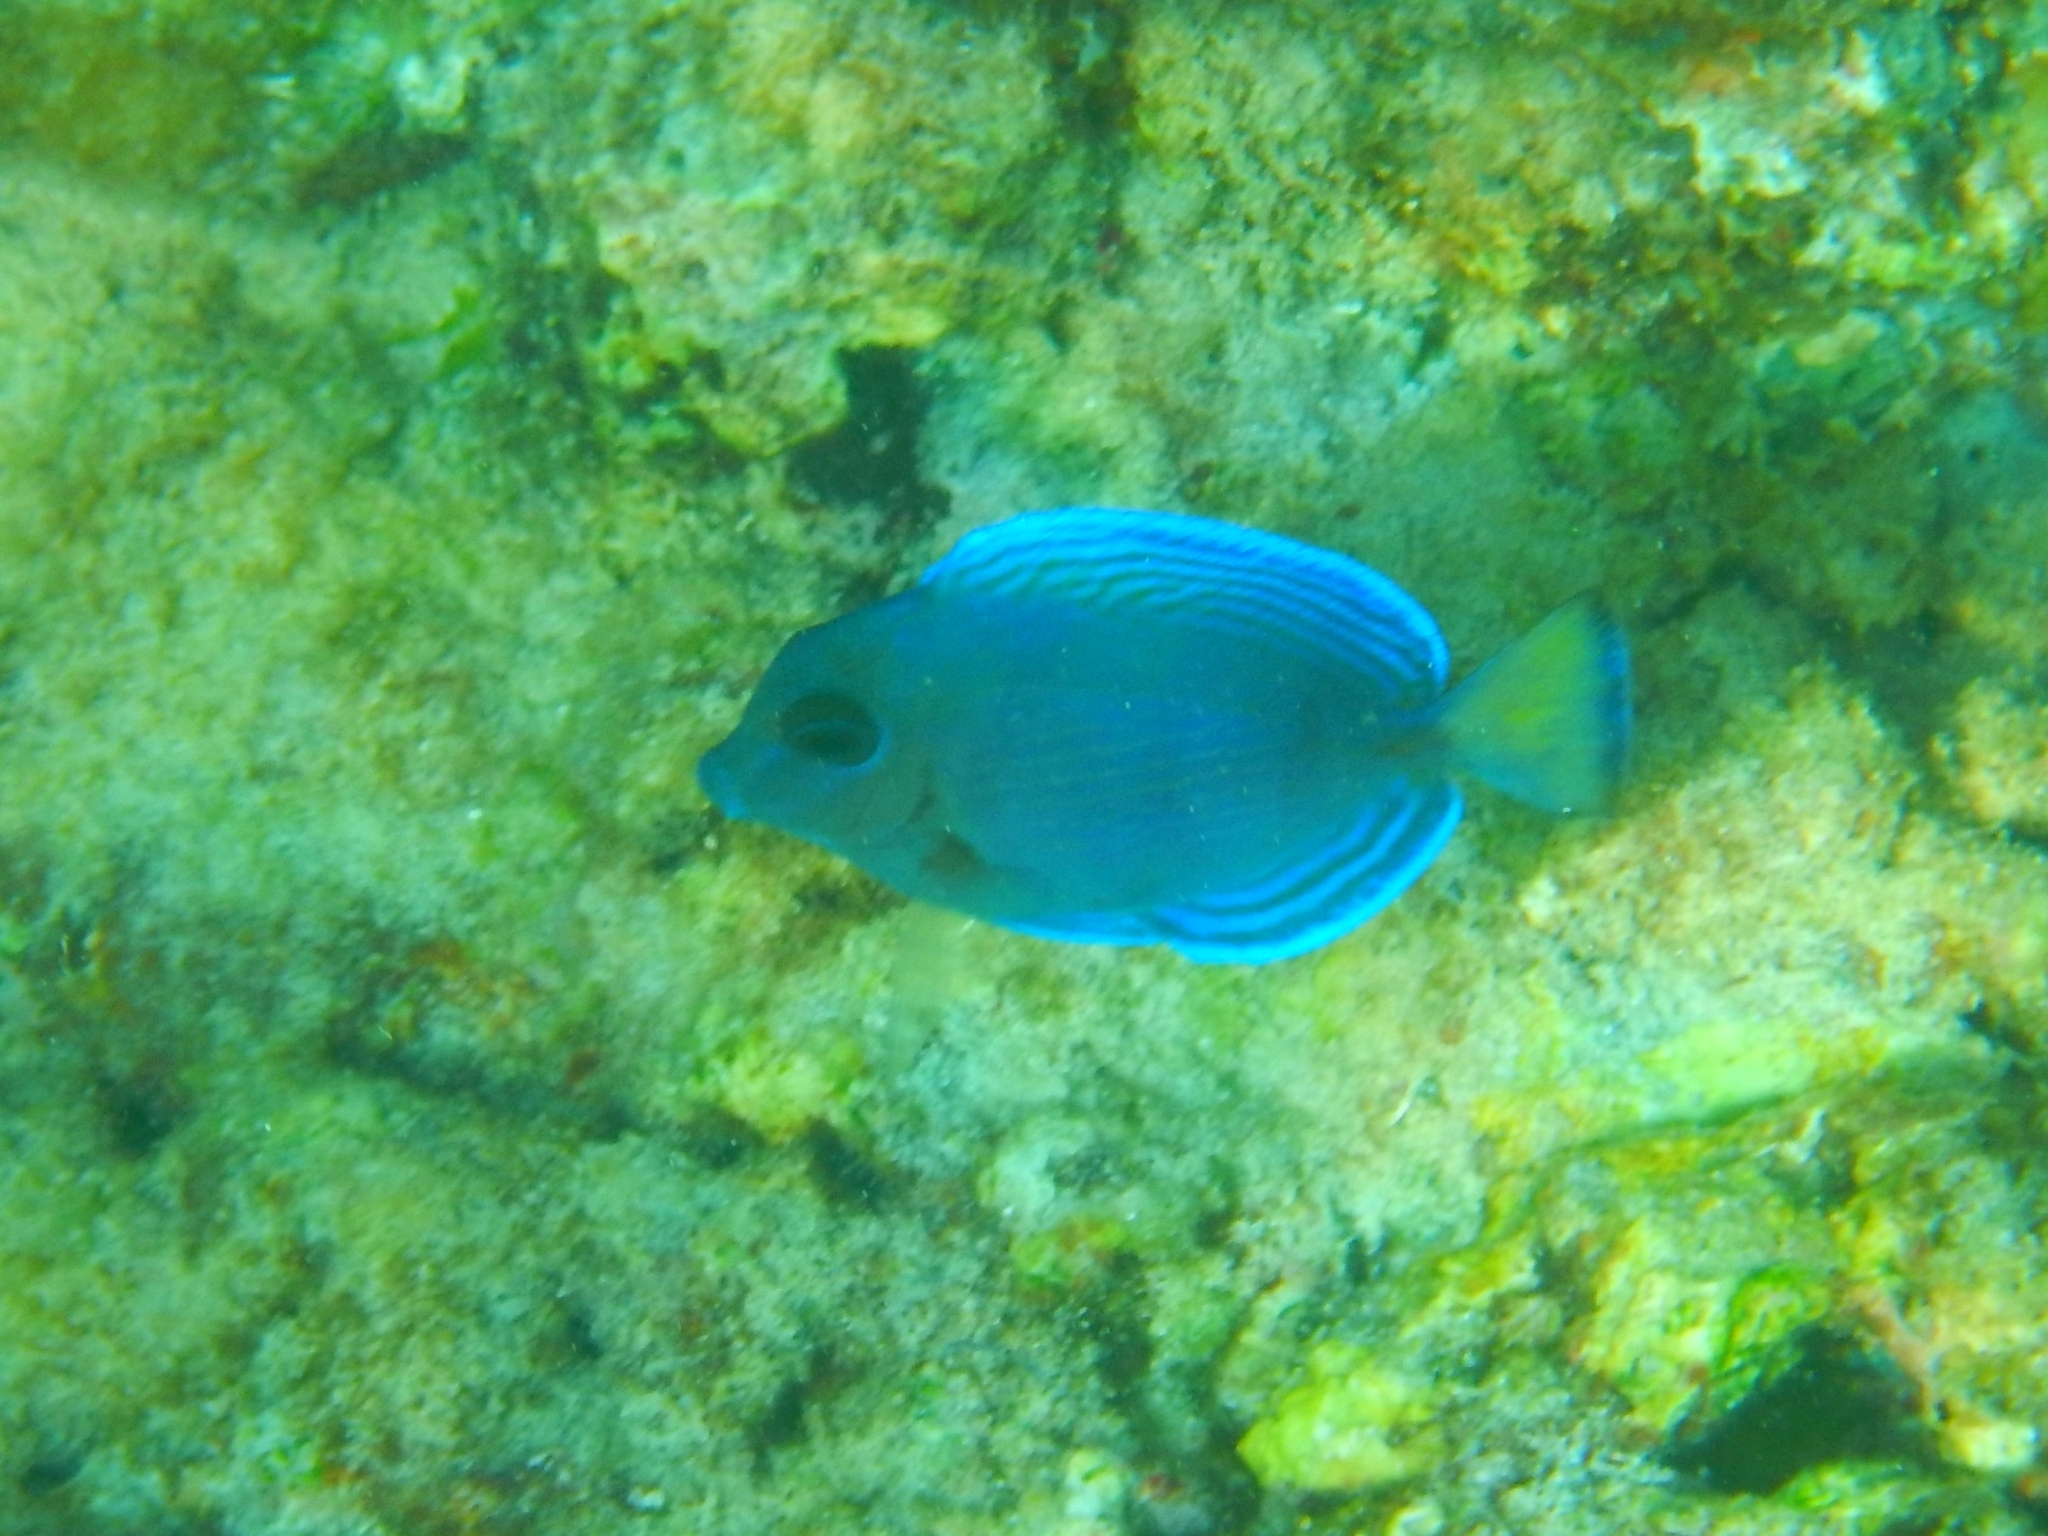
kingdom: Animalia
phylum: Chordata
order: Perciformes
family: Acanthuridae
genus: Acanthurus
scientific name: Acanthurus coeruleus
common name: Blue tang
